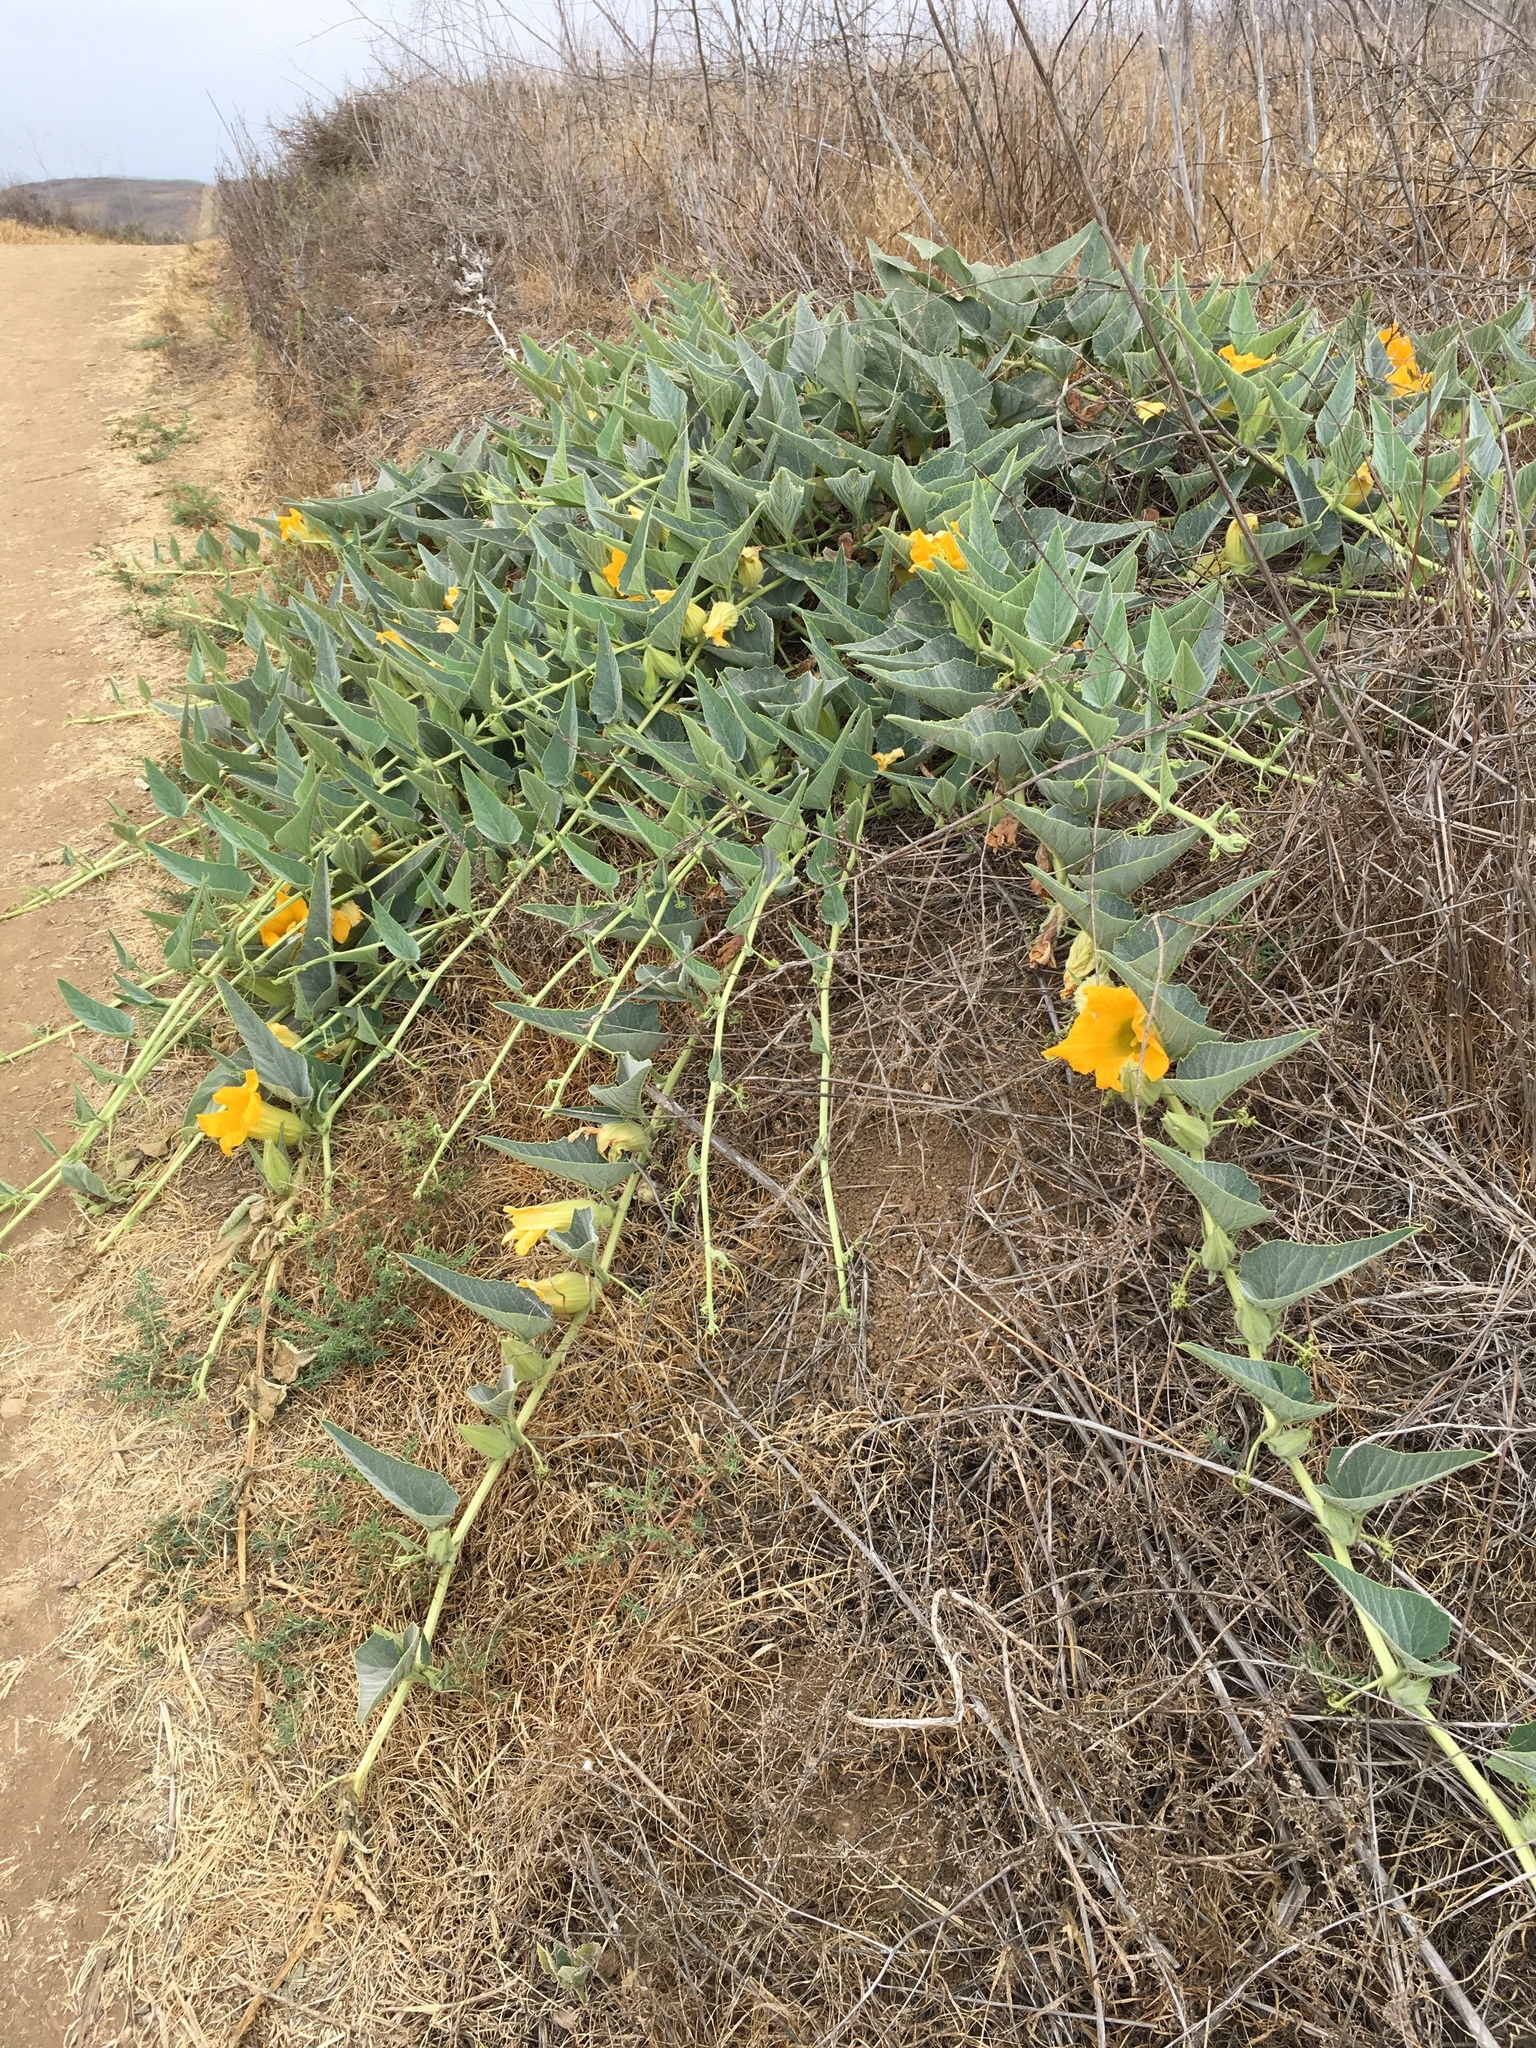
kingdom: Plantae
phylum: Tracheophyta
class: Magnoliopsida
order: Cucurbitales
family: Cucurbitaceae
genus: Cucurbita
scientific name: Cucurbita foetidissima
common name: Buffalo gourd
